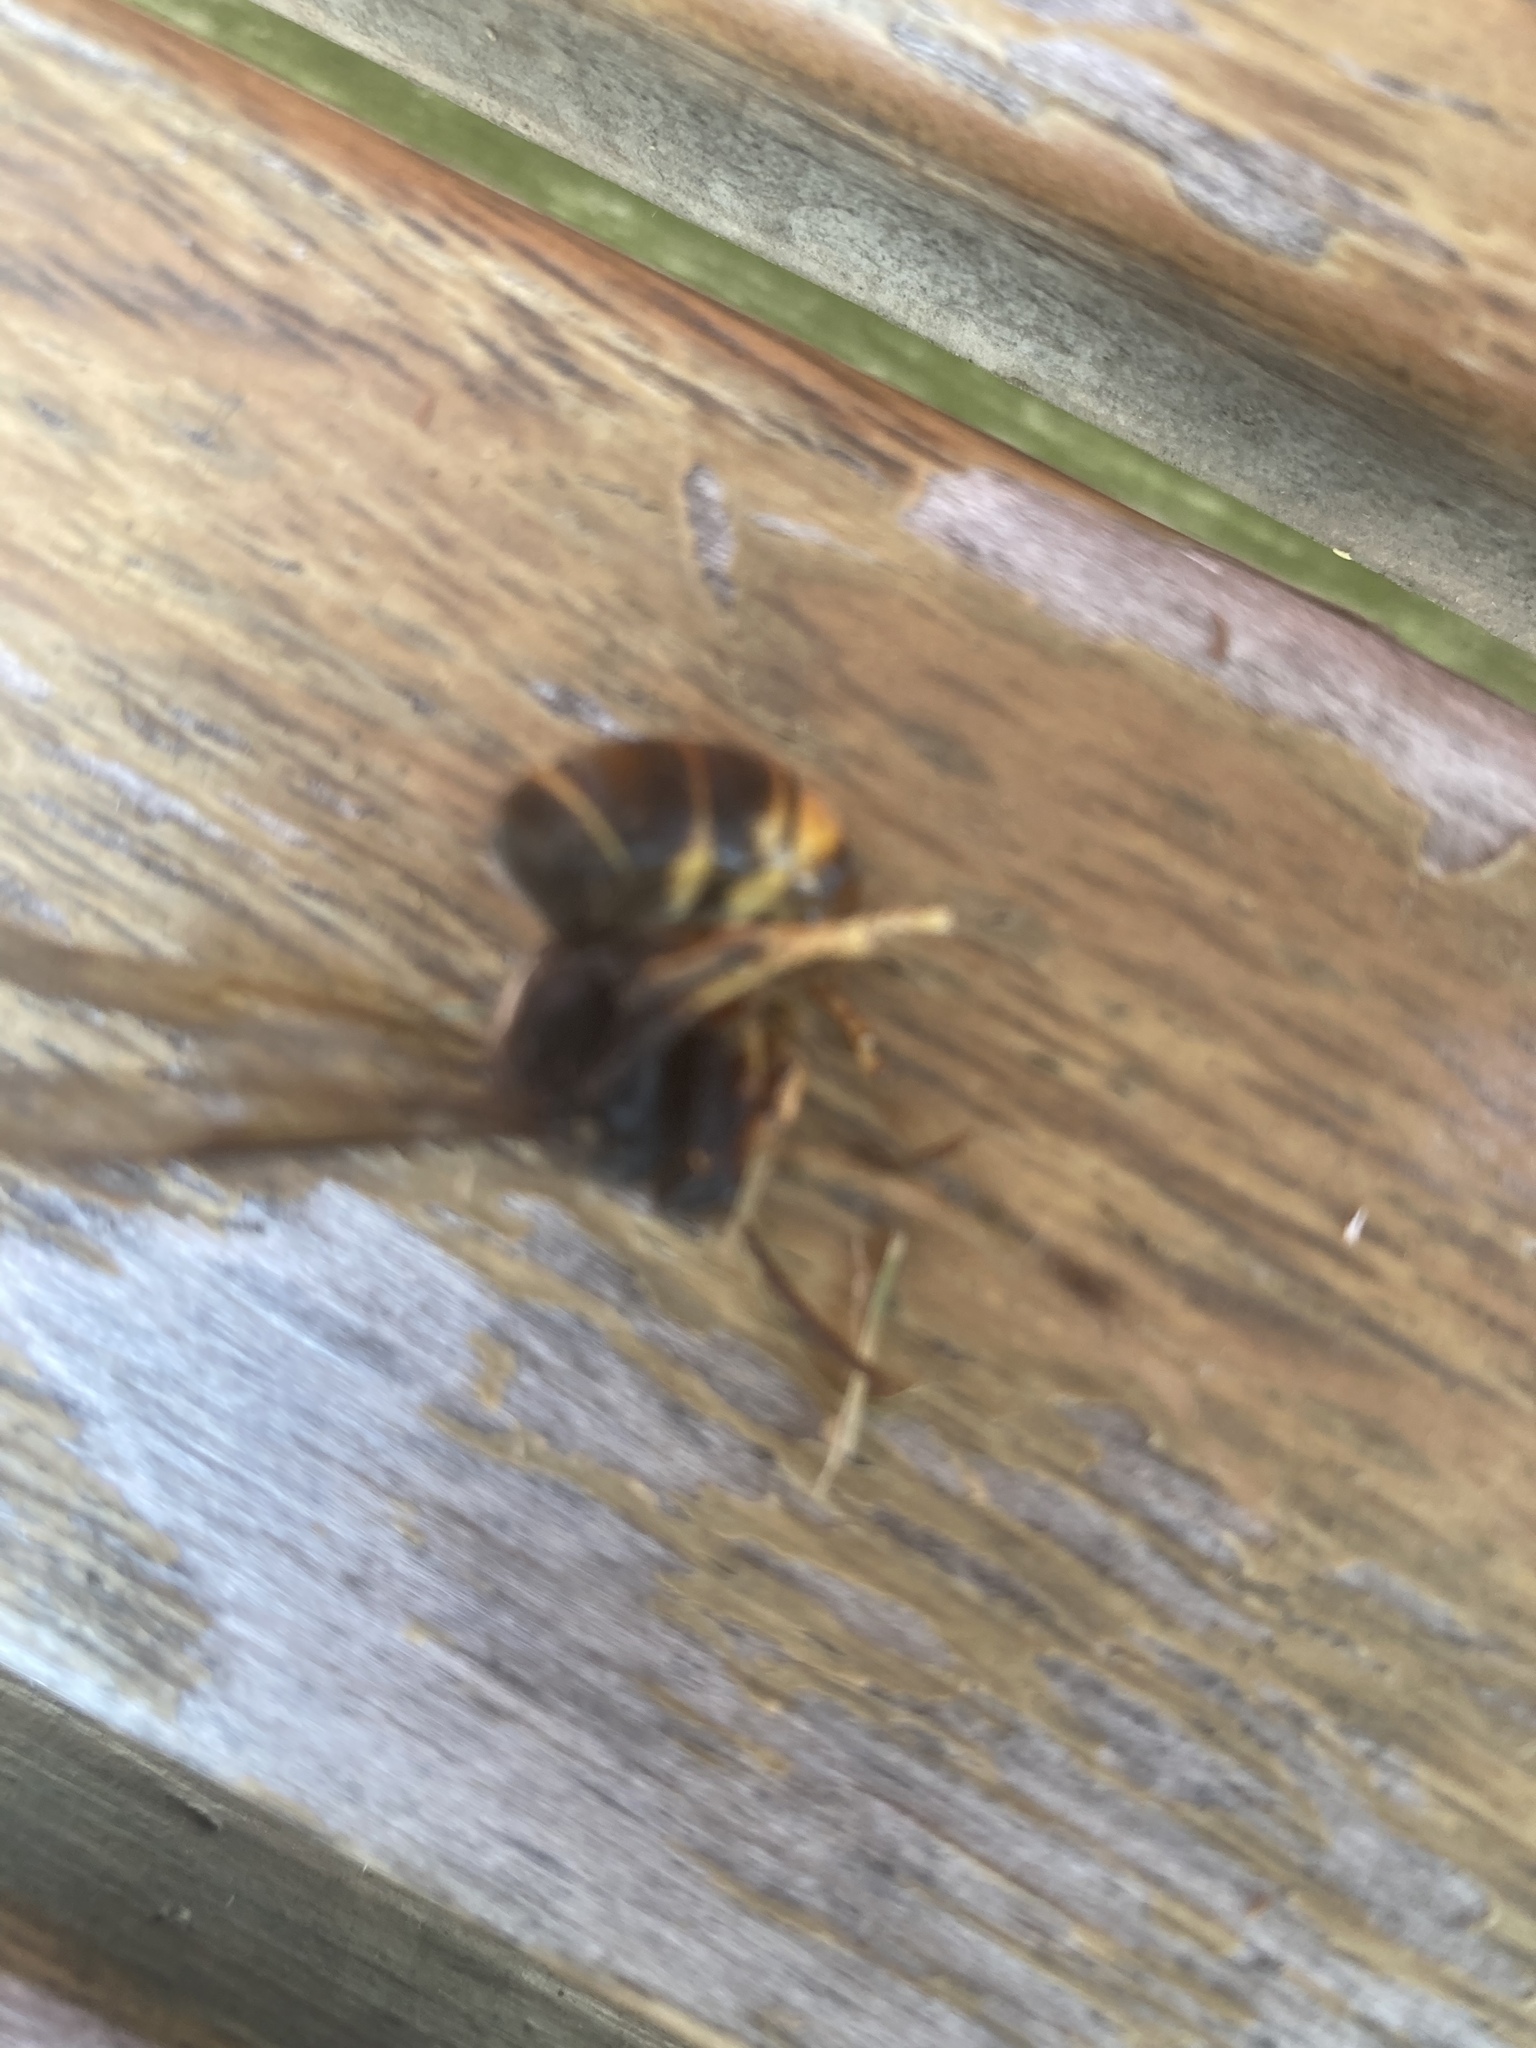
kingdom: Animalia
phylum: Arthropoda
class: Insecta
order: Hymenoptera
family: Vespidae
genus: Vespa
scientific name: Vespa velutina
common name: Asian hornet
